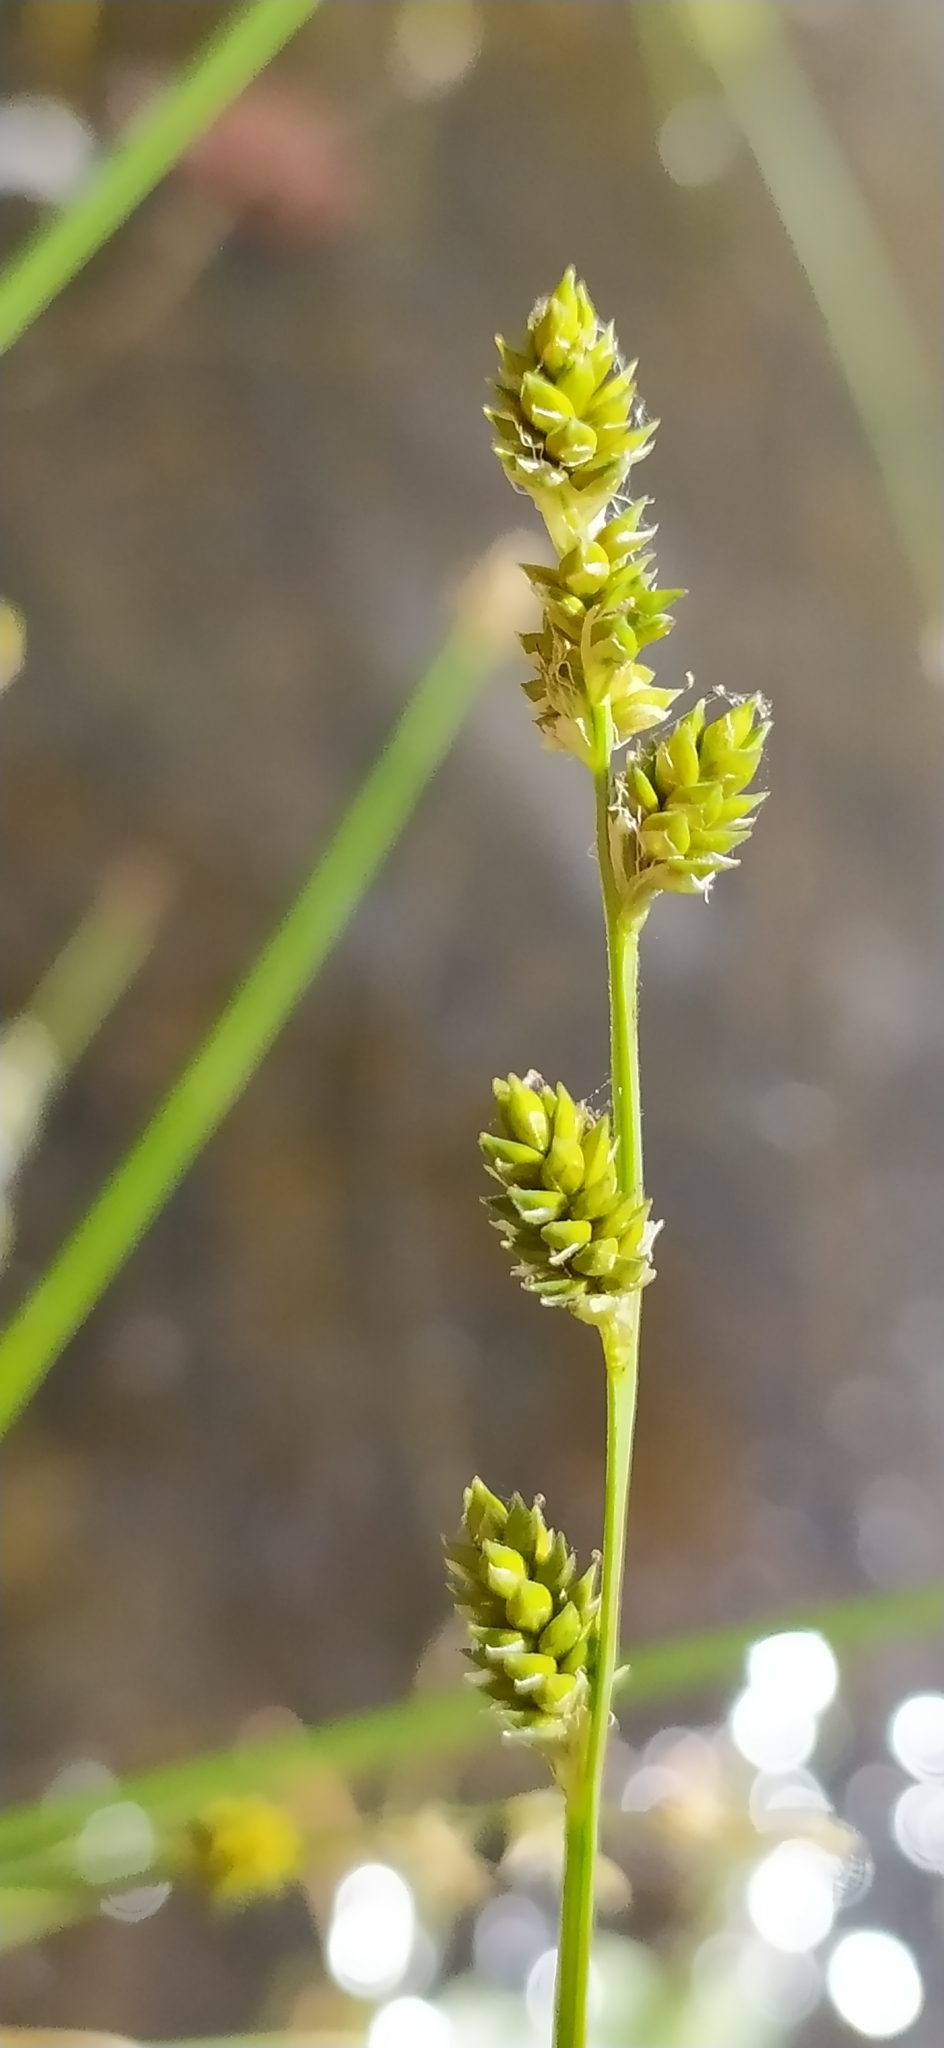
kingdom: Plantae
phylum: Tracheophyta
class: Liliopsida
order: Poales
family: Cyperaceae
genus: Carex
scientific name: Carex canescens
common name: White sedge
